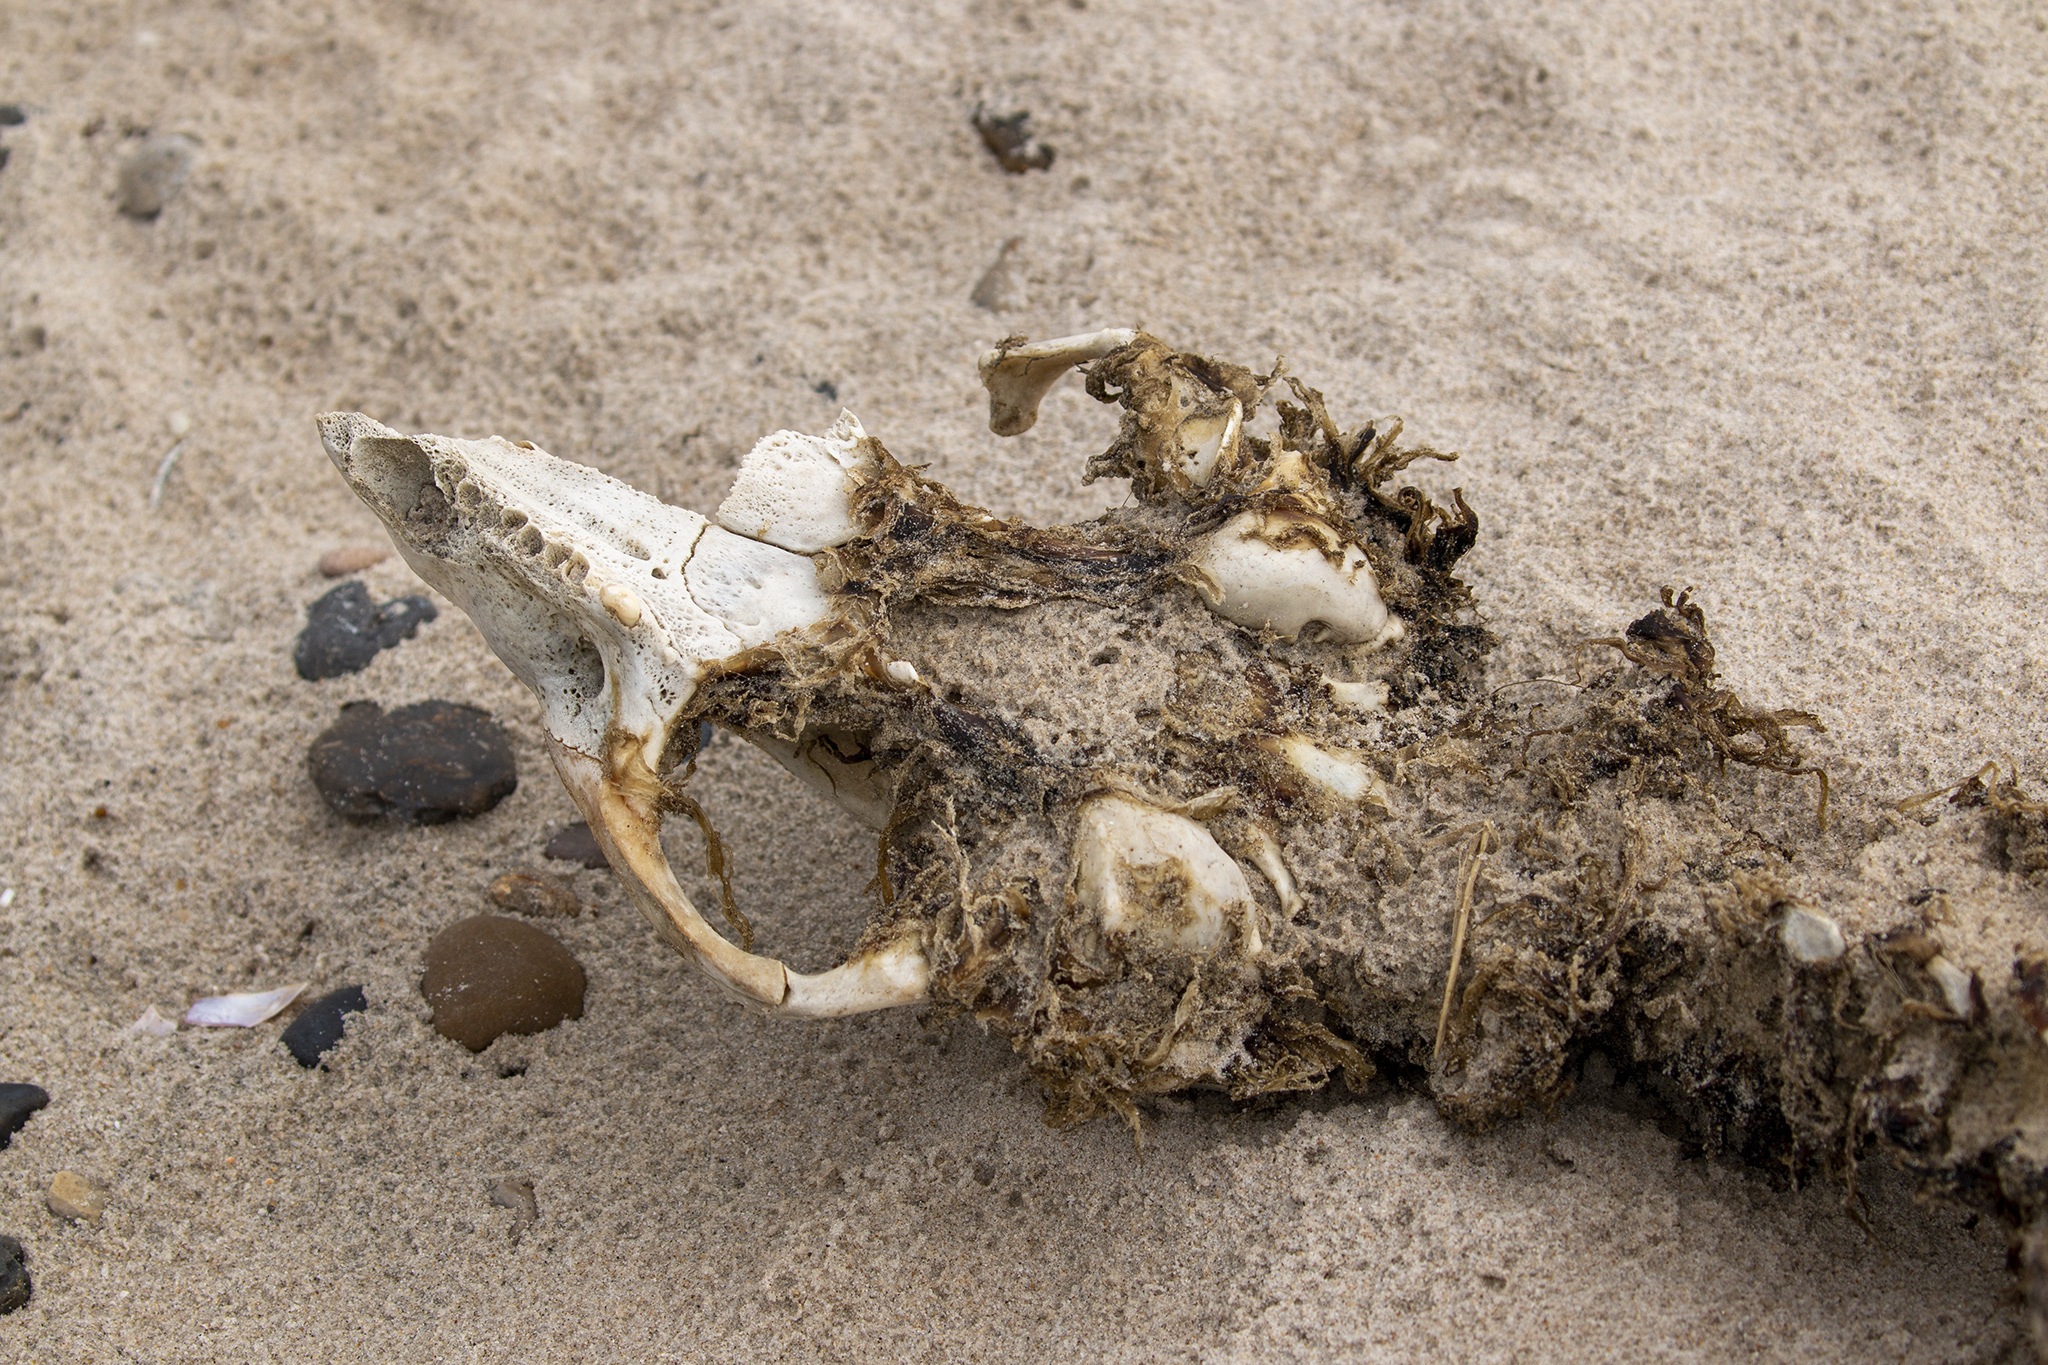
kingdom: Animalia
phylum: Chordata
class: Mammalia
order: Carnivora
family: Phocidae
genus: Phoca
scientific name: Phoca vitulina
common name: Harbor seal
